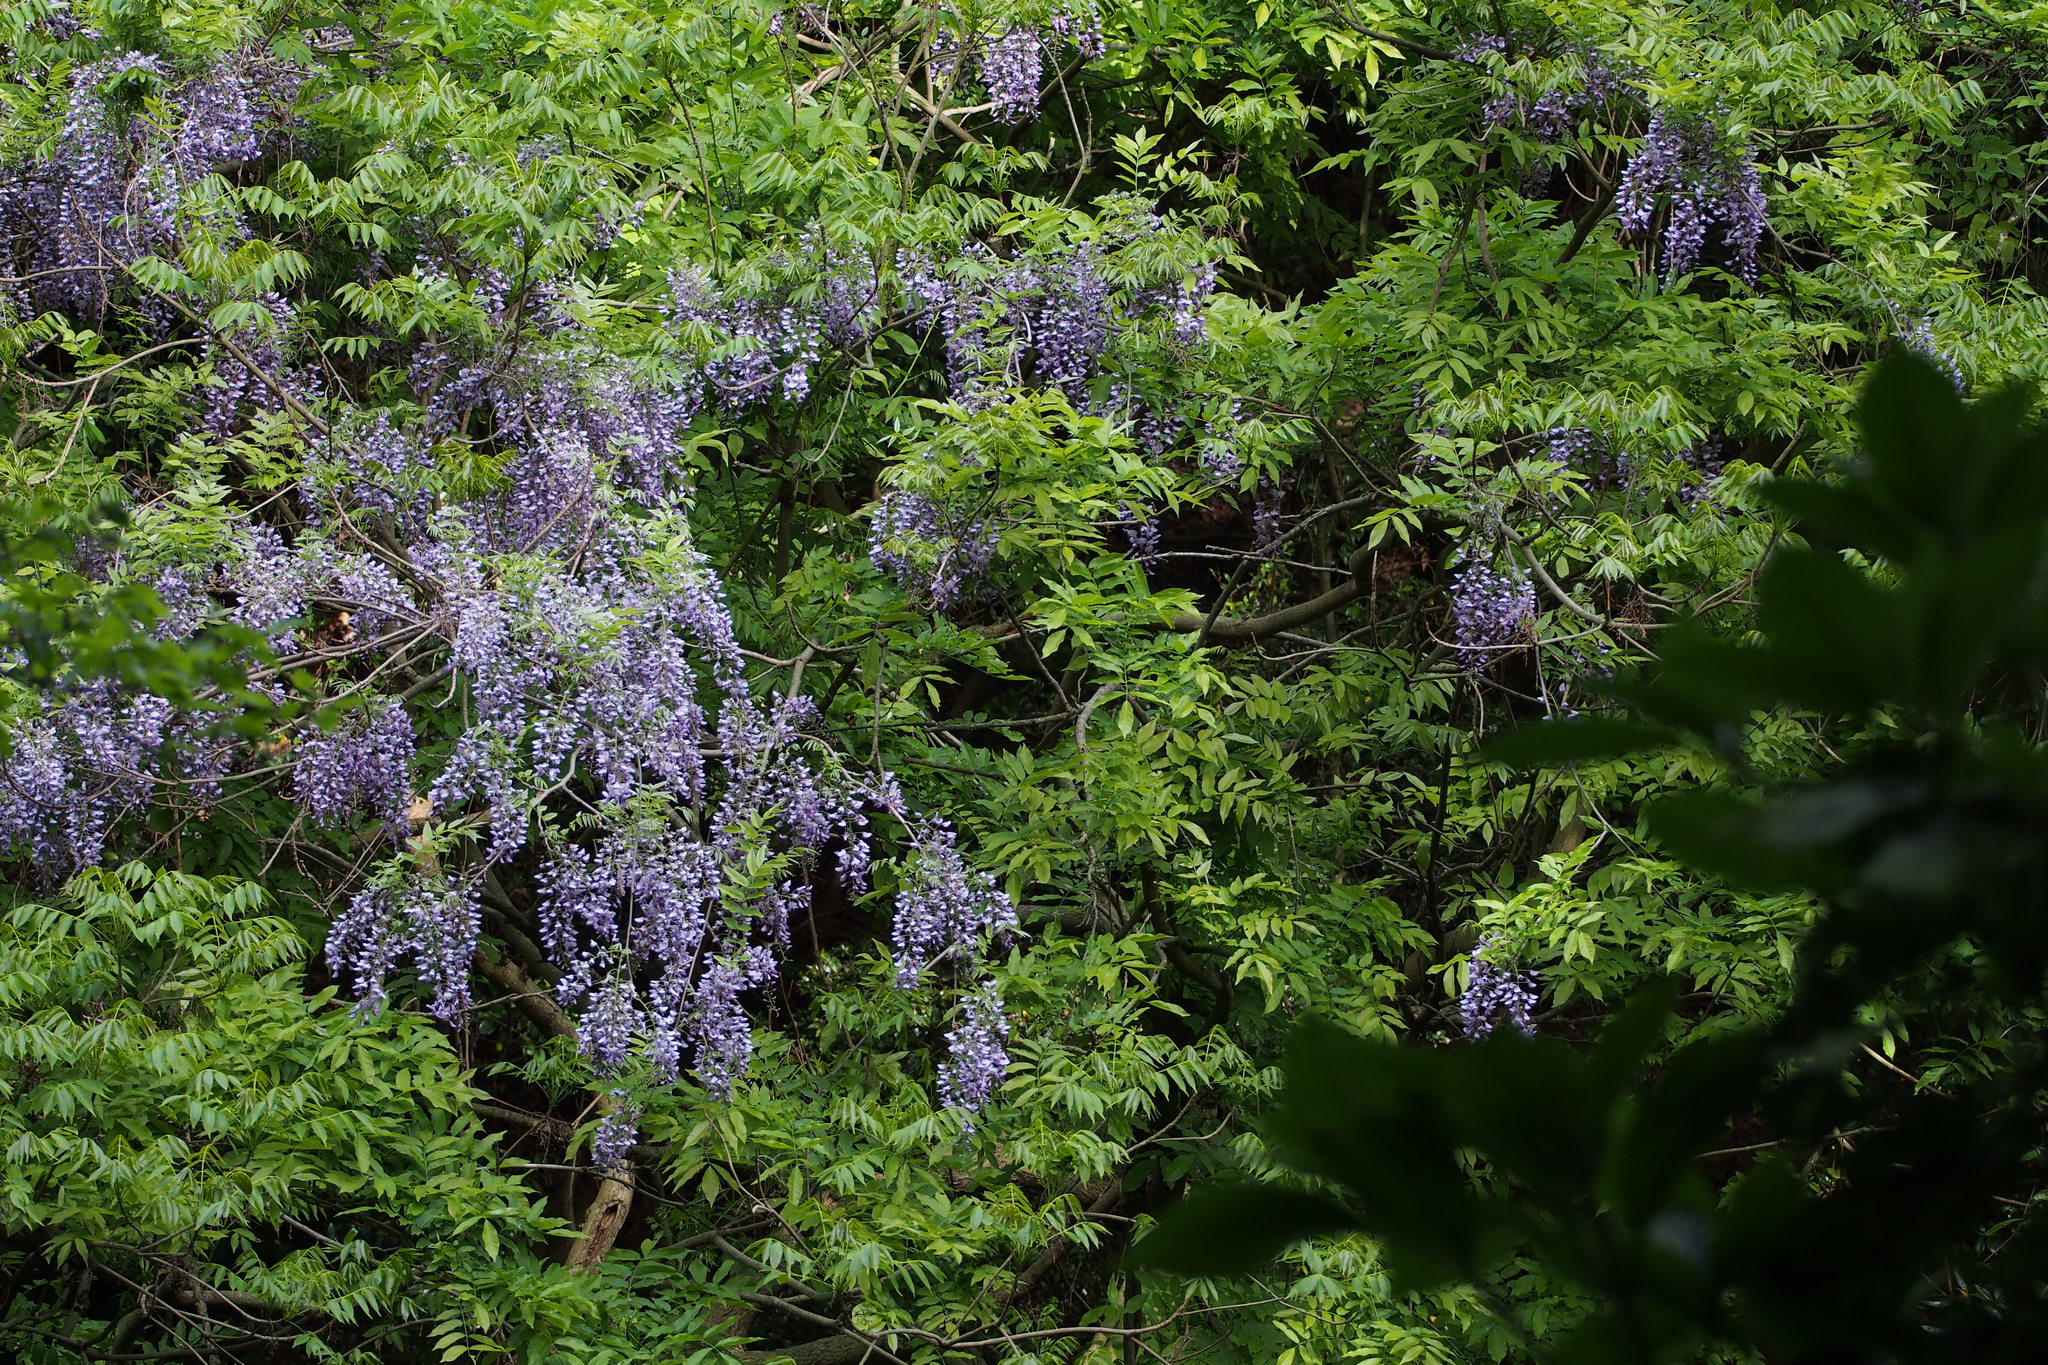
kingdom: Plantae
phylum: Tracheophyta
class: Magnoliopsida
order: Fabales
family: Fabaceae
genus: Wisteria
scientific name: Wisteria floribunda
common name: Japanese wisteria
